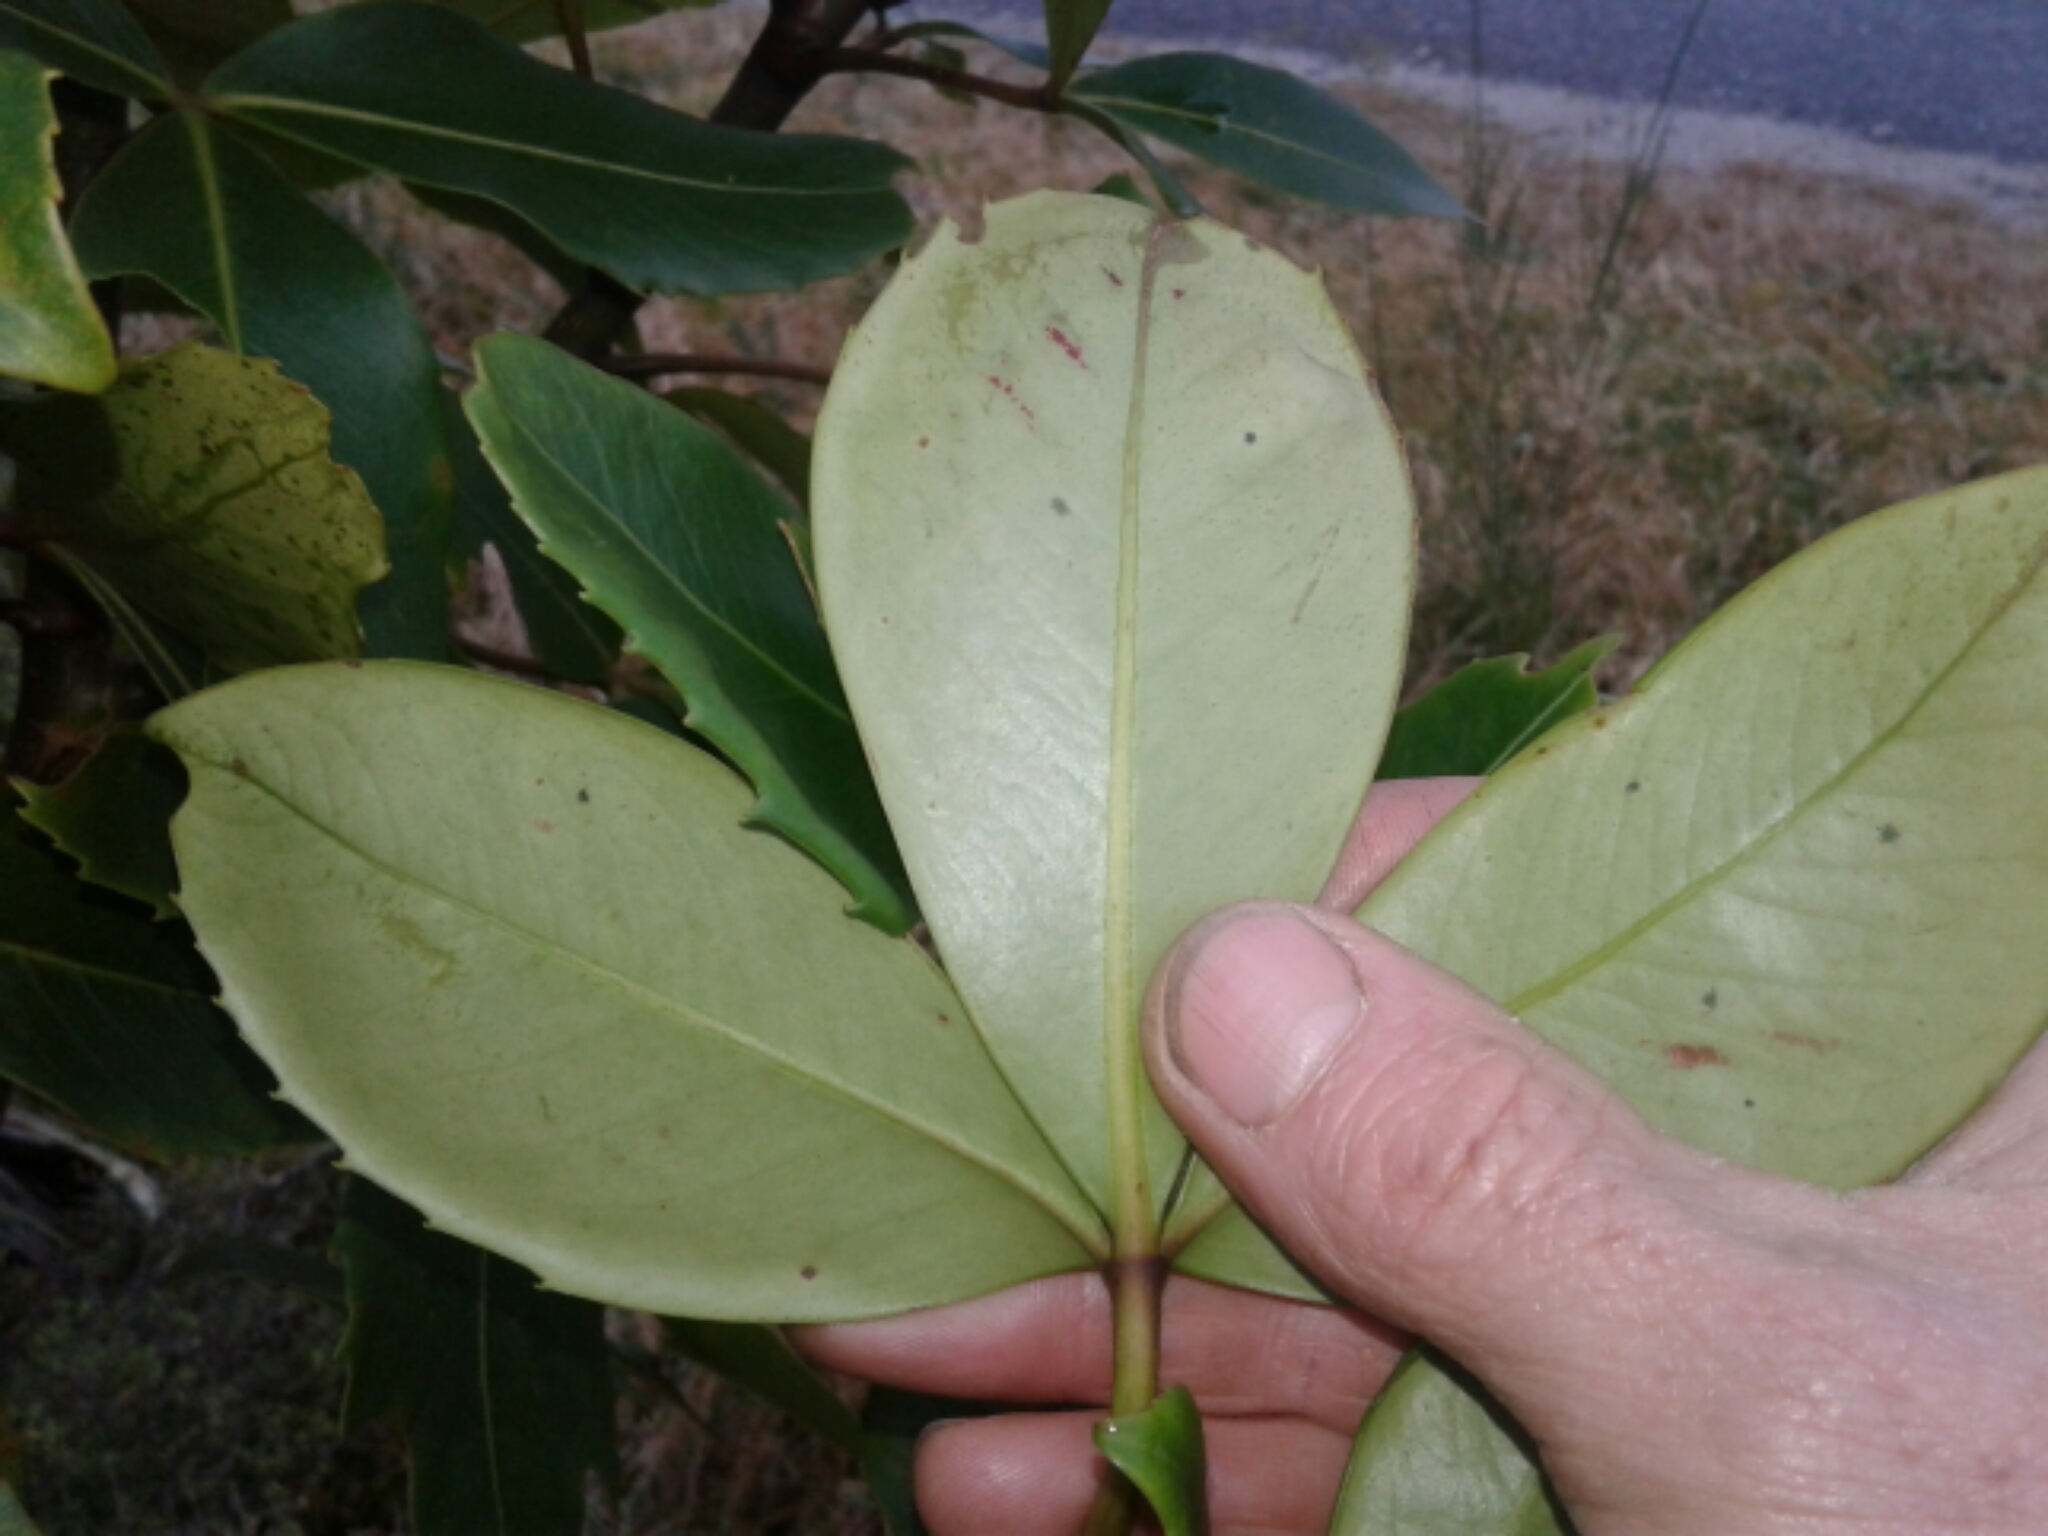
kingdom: Plantae
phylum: Tracheophyta
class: Magnoliopsida
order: Apiales
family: Araliaceae
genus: Neopanax
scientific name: Neopanax colensoi
